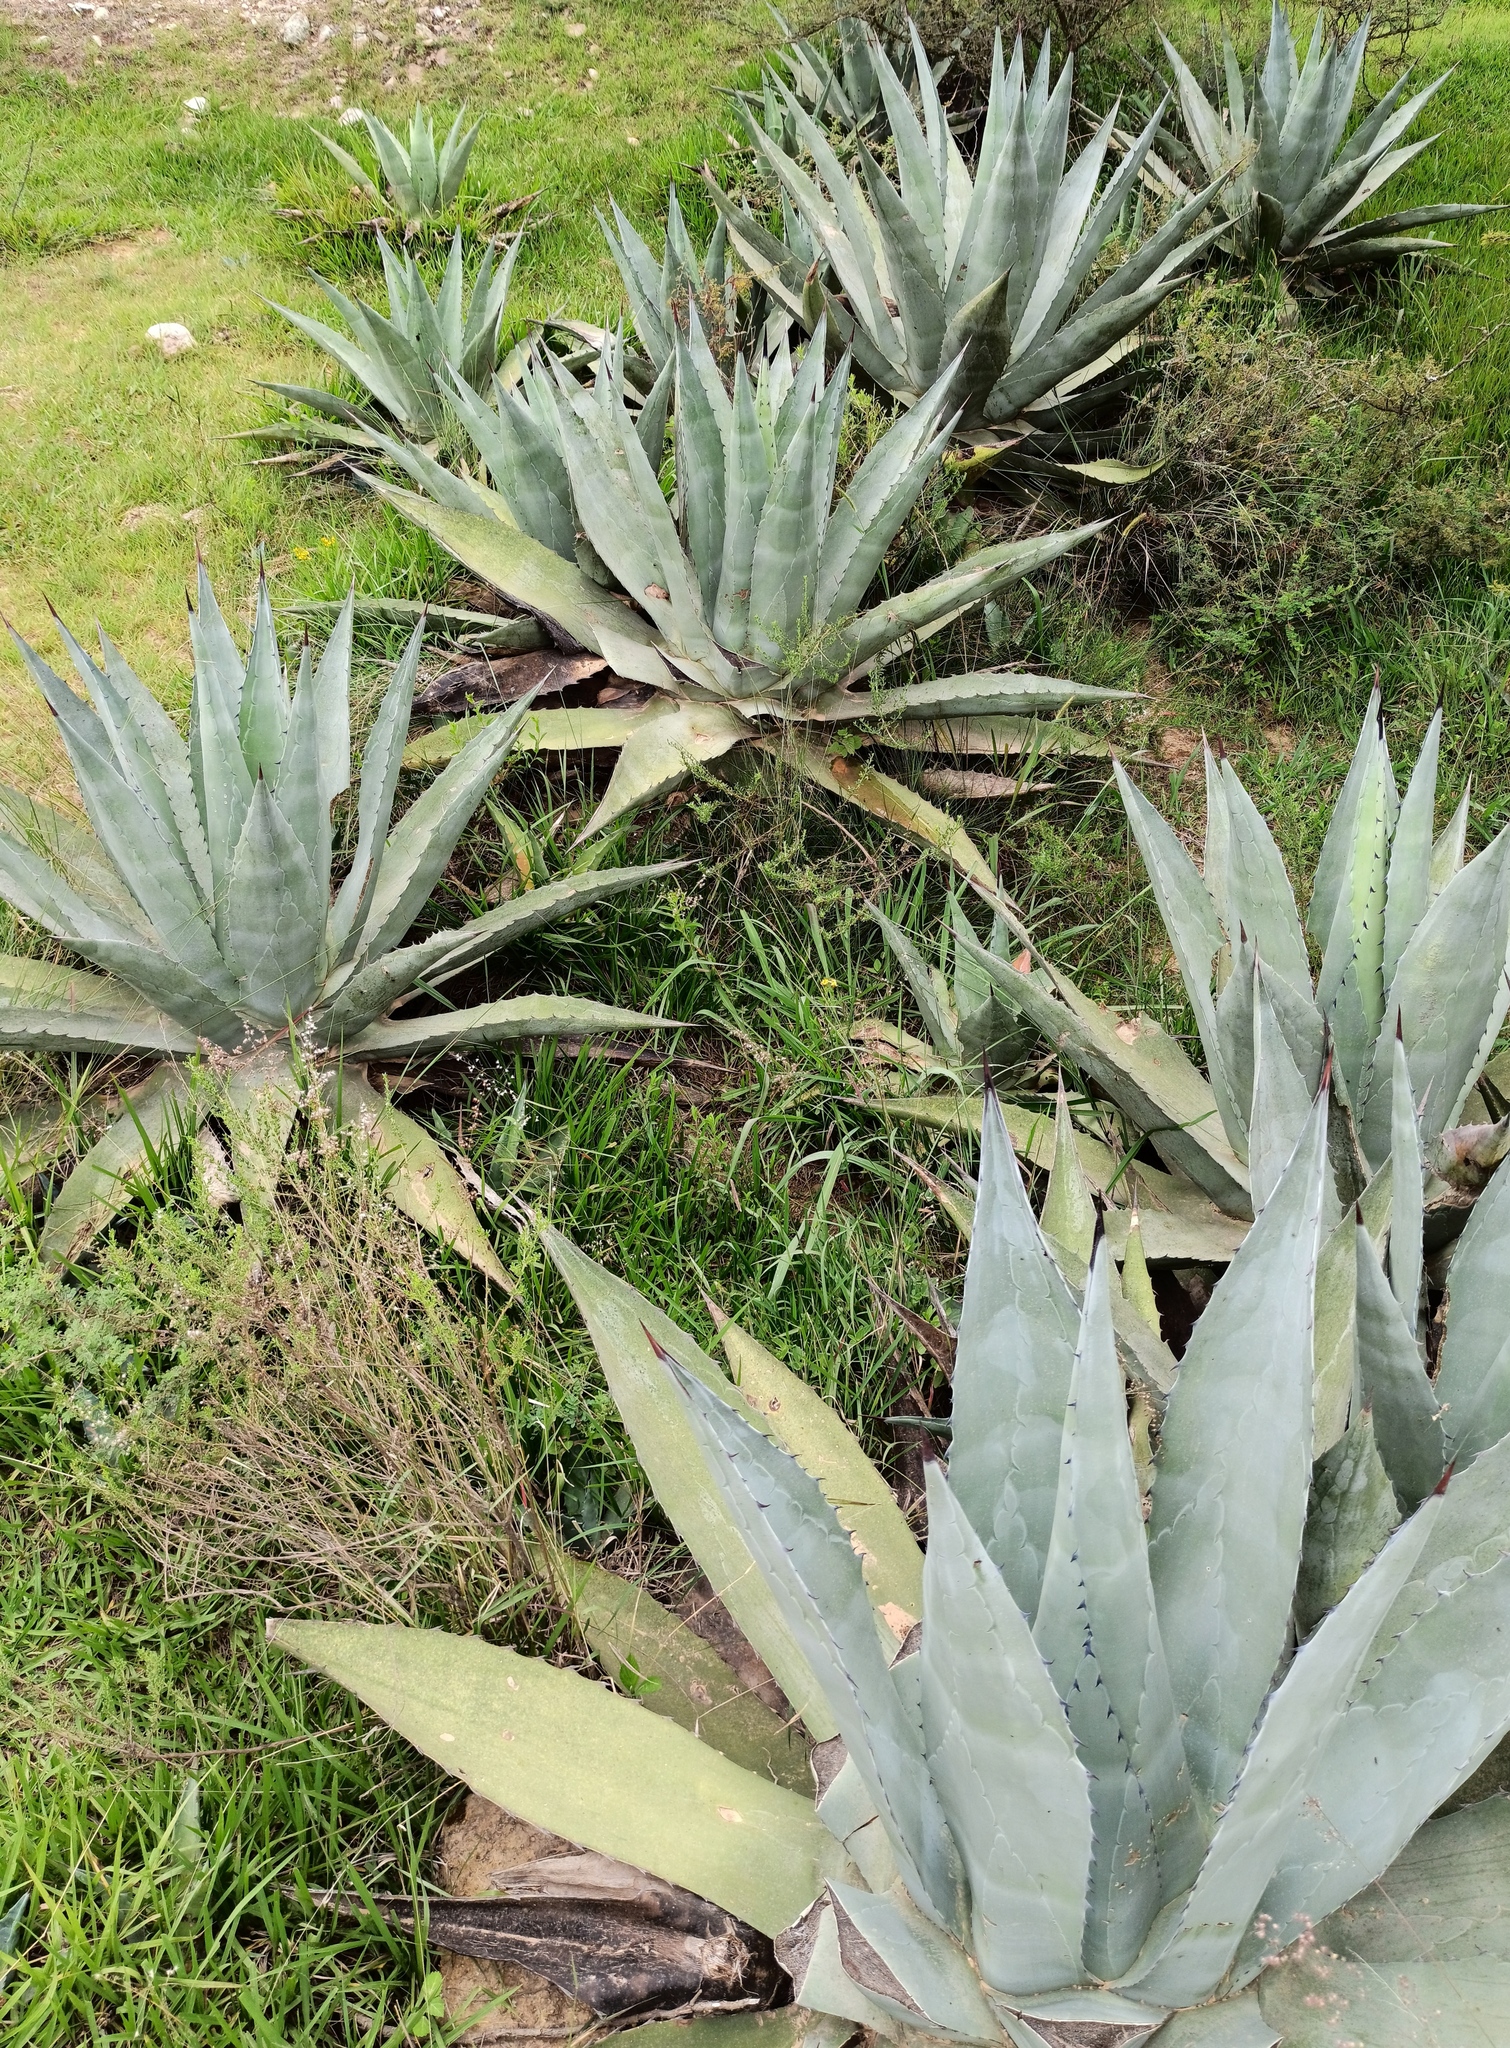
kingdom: Plantae
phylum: Tracheophyta
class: Liliopsida
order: Asparagales
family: Asparagaceae
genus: Agave
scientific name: Agave americana
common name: Centuryplant
